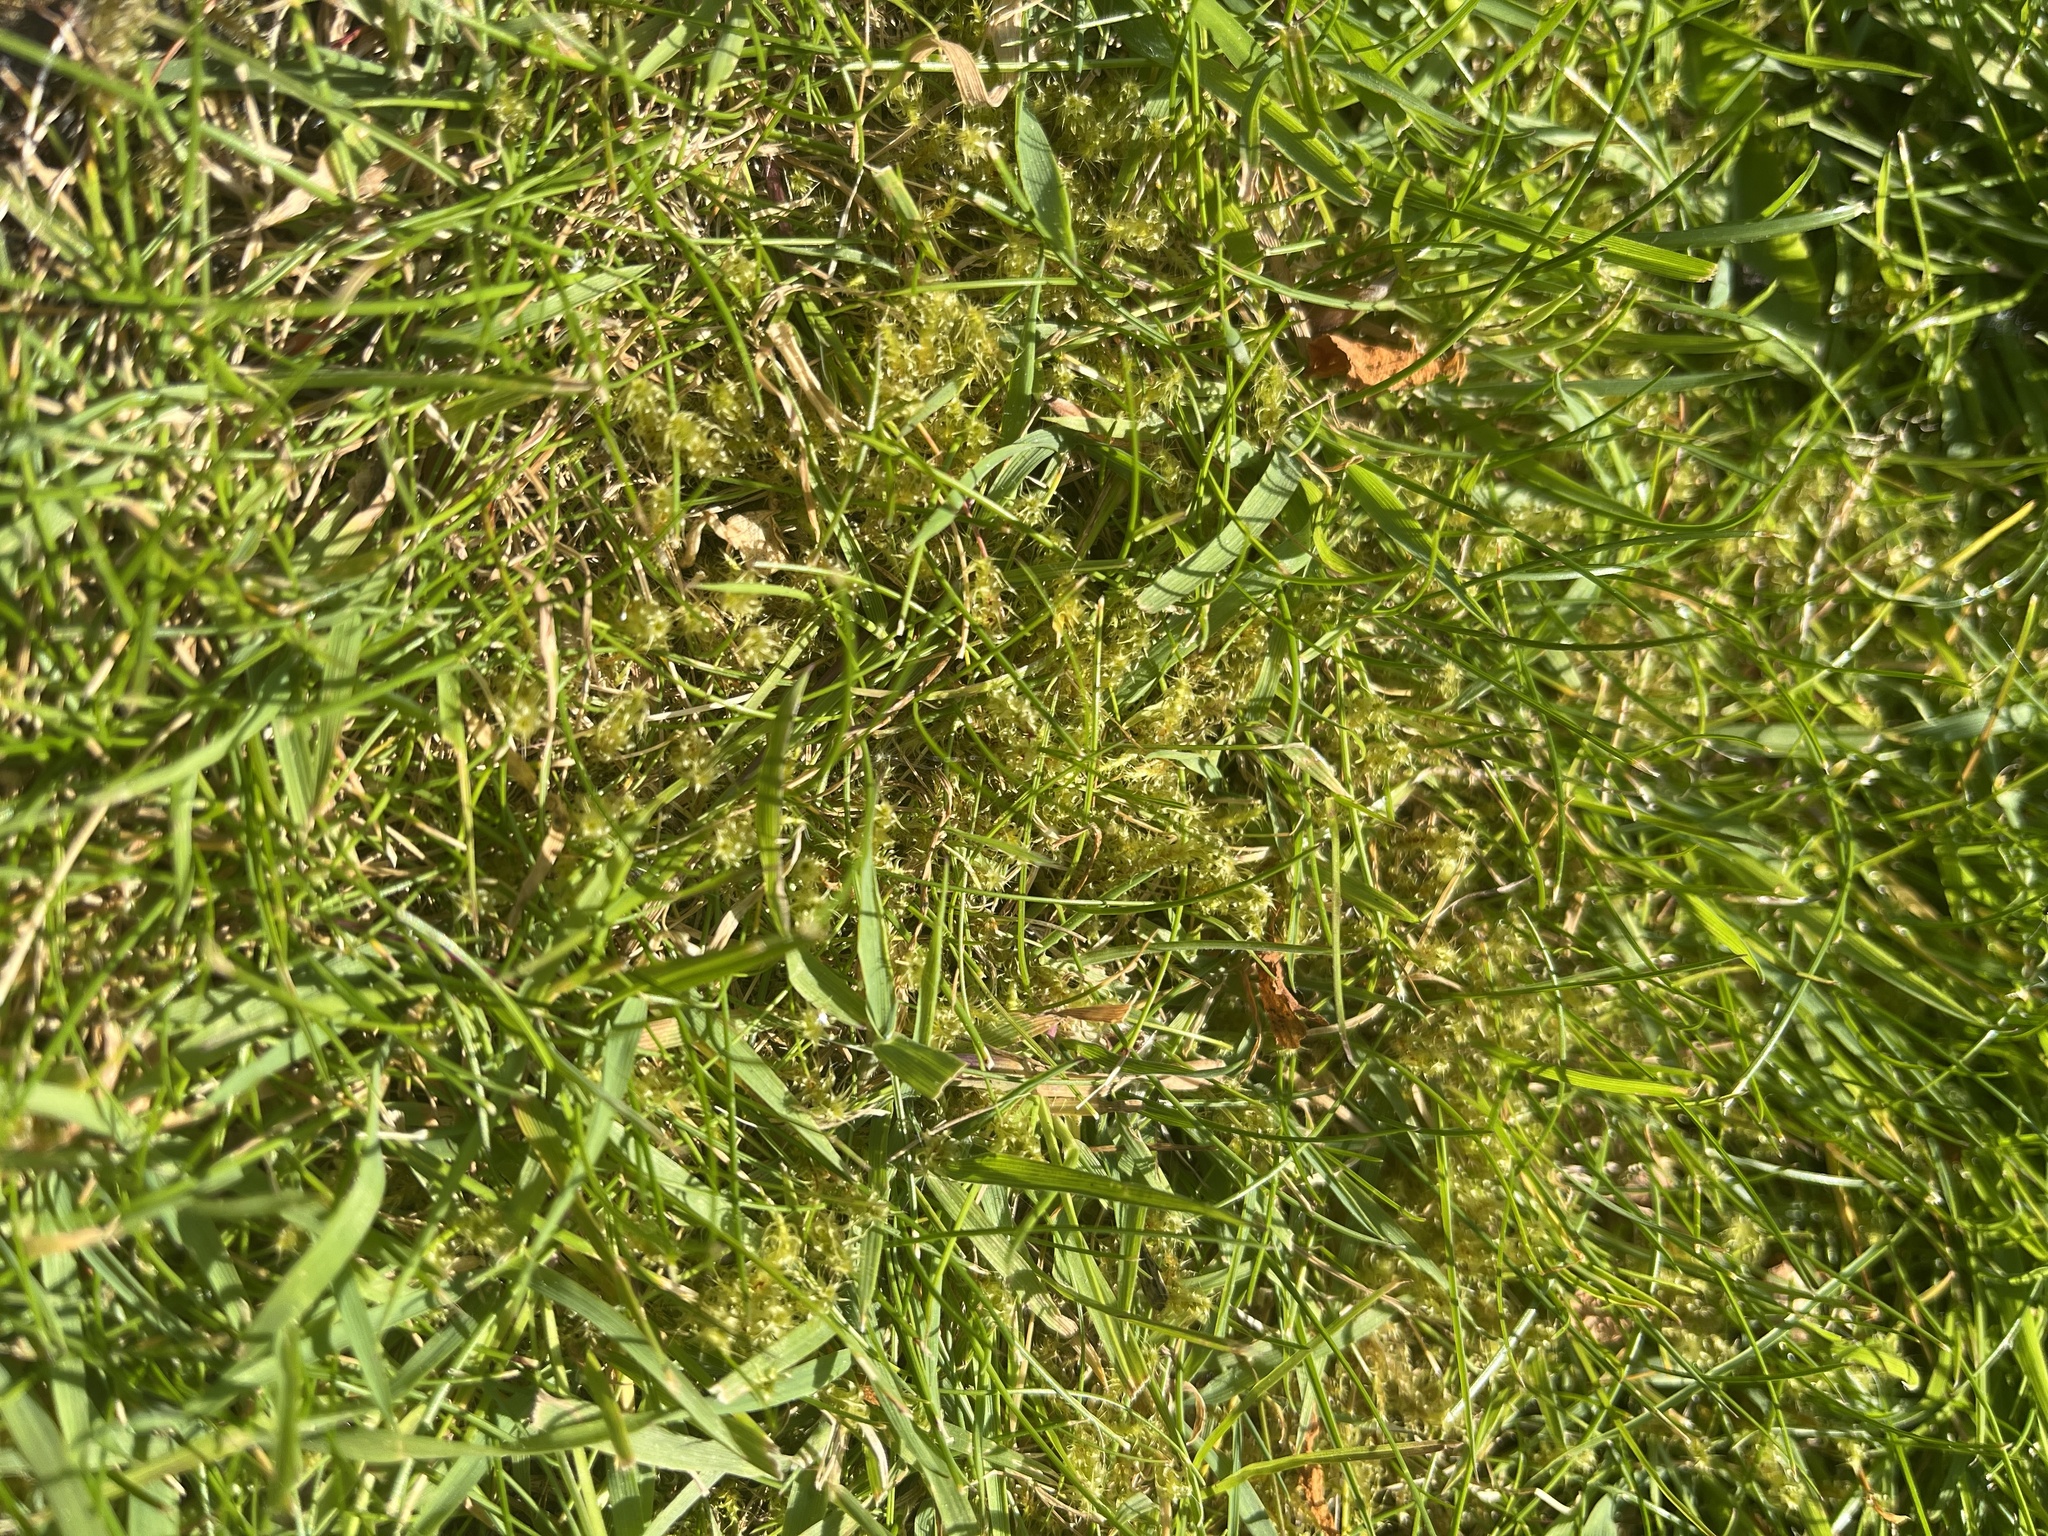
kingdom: Plantae
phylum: Bryophyta
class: Bryopsida
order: Hypnales
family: Hylocomiaceae
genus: Rhytidiadelphus
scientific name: Rhytidiadelphus squarrosus
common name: Springy turf-moss
